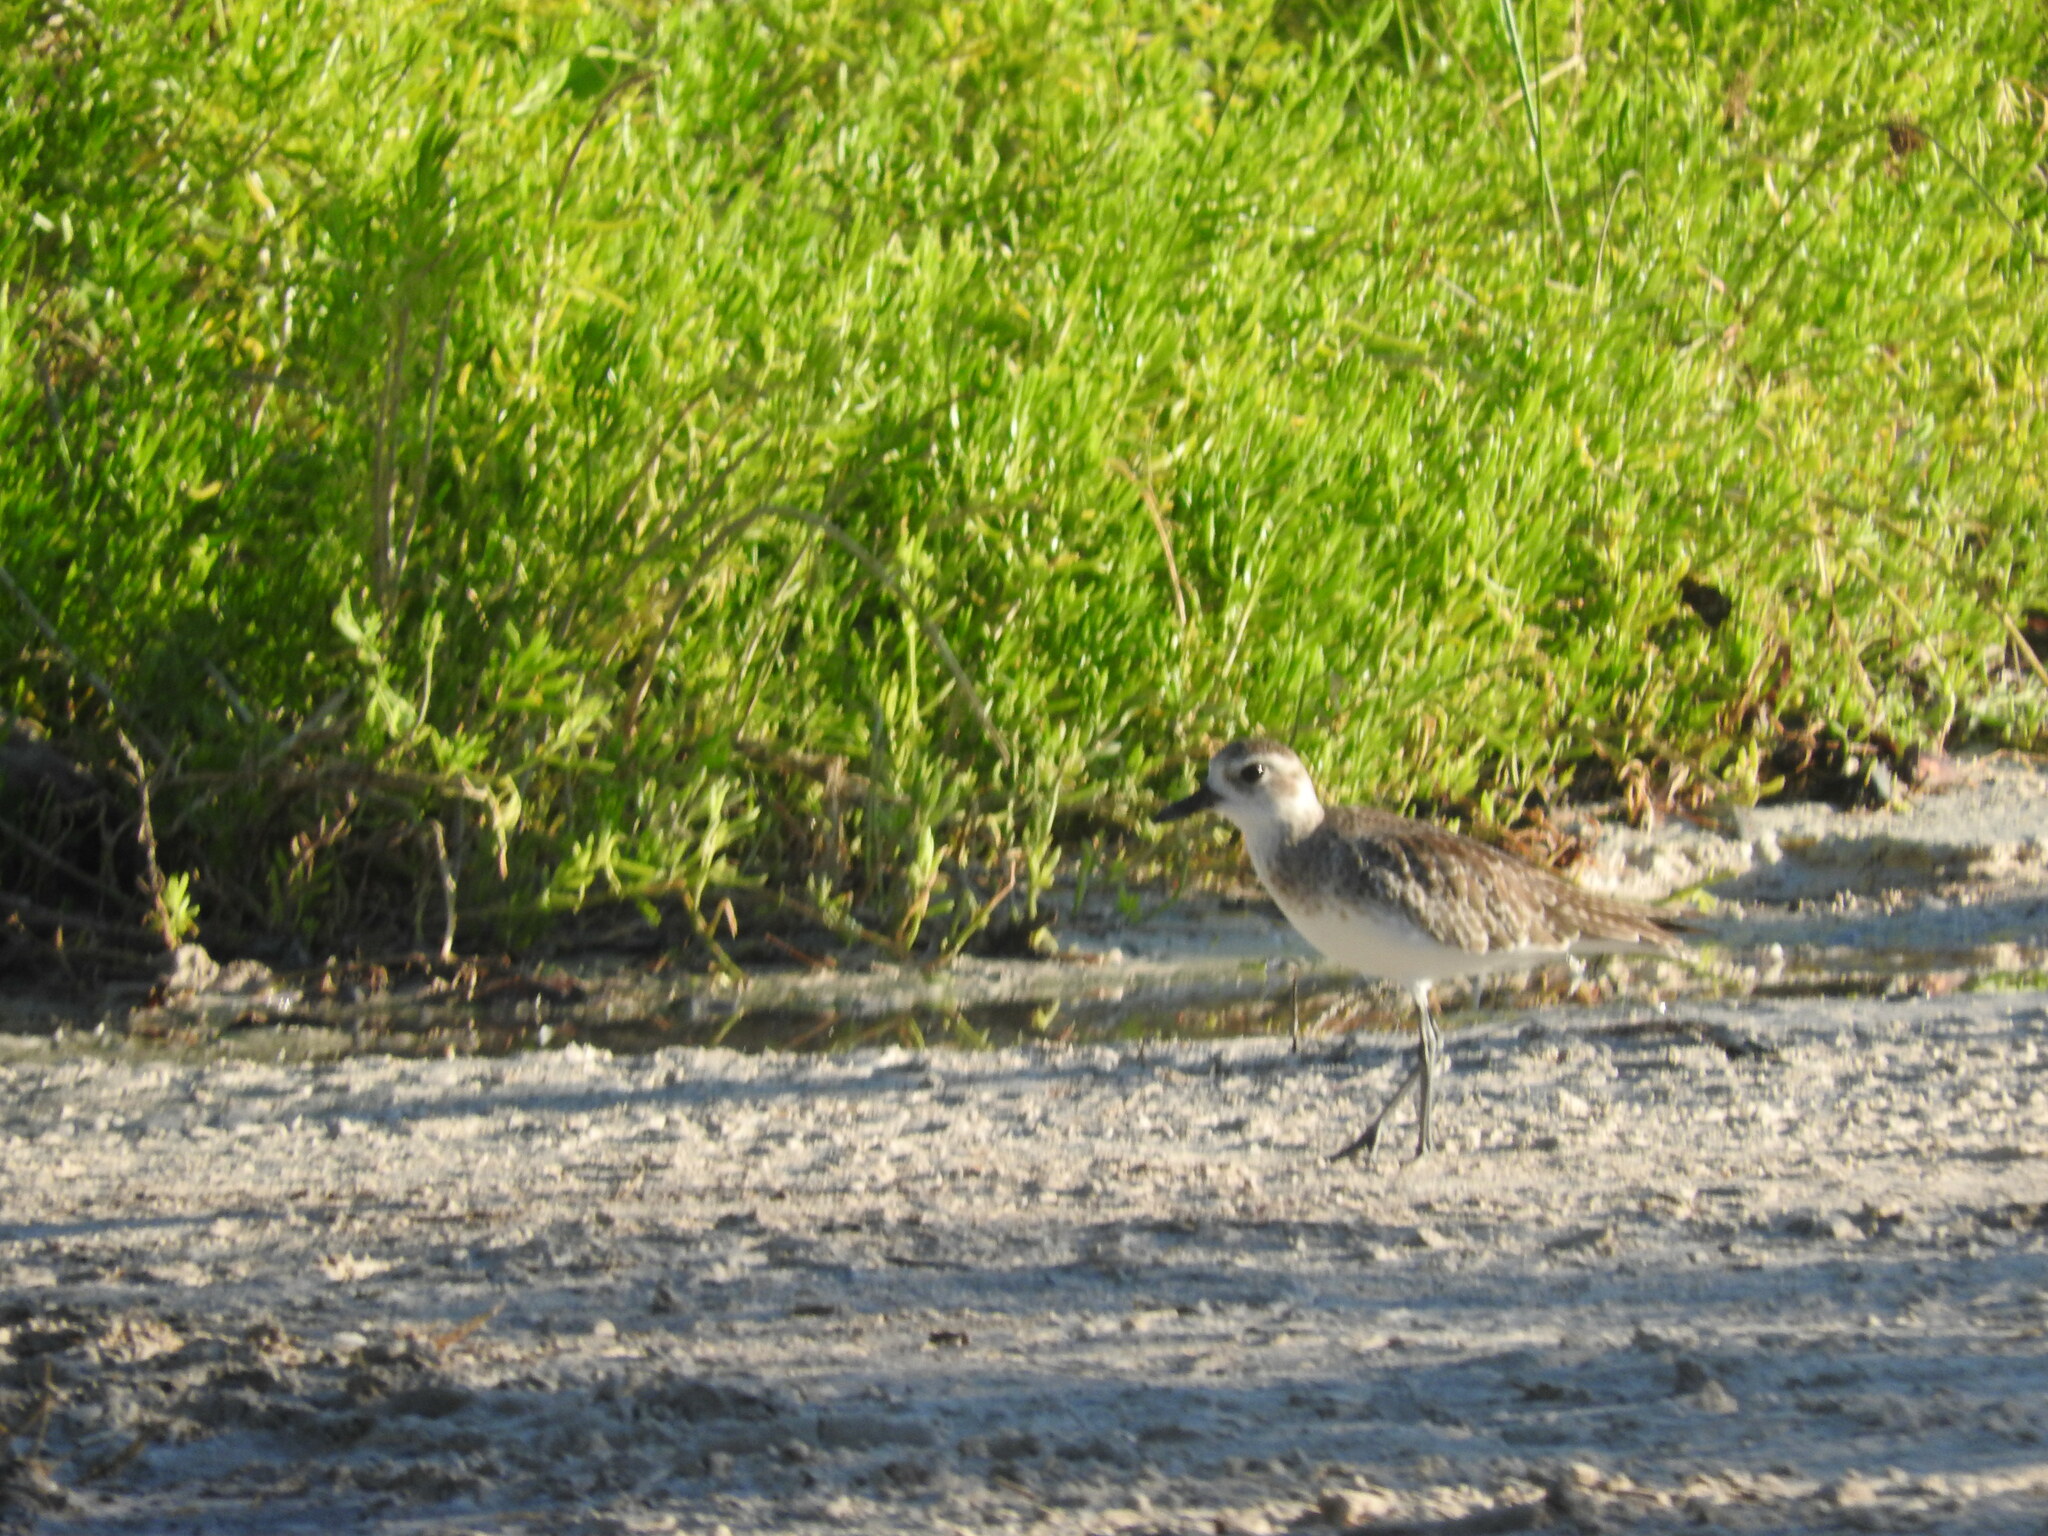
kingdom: Animalia
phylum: Chordata
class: Aves
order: Charadriiformes
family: Charadriidae
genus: Pluvialis
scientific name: Pluvialis squatarola
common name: Grey plover
